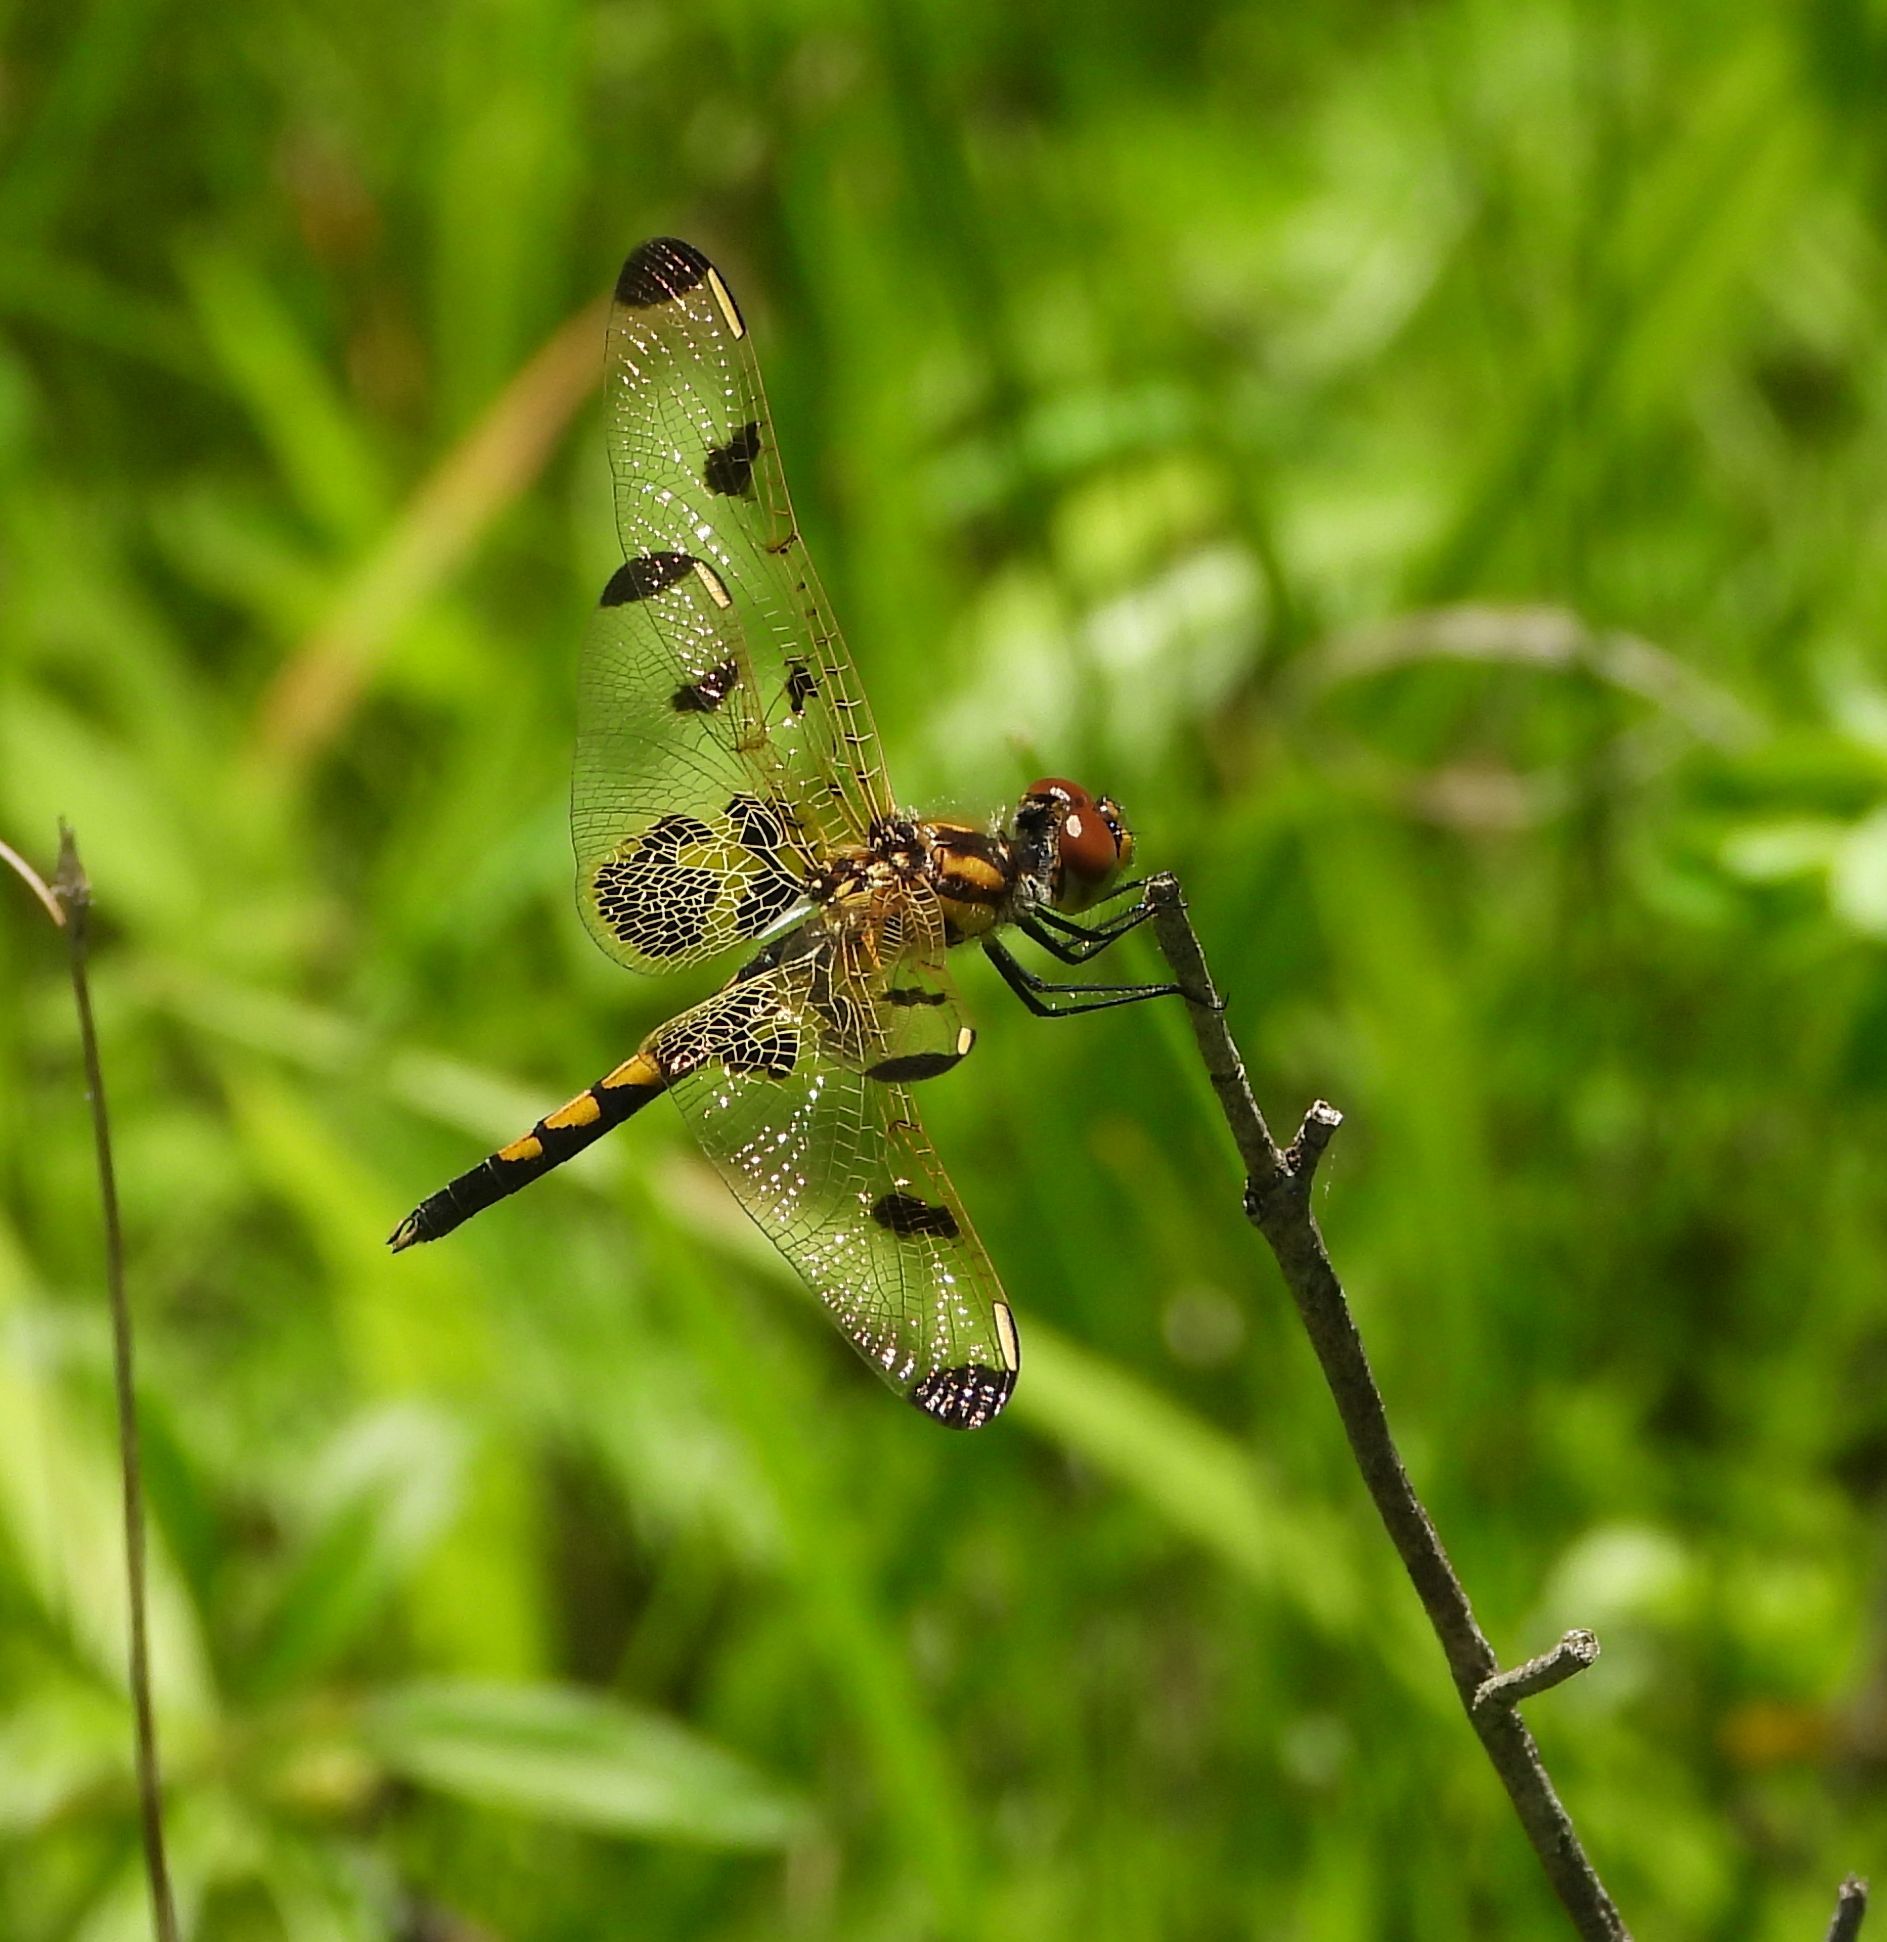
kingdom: Animalia
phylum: Arthropoda
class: Insecta
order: Odonata
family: Libellulidae
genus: Celithemis
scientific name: Celithemis elisa
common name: Calico pennant
